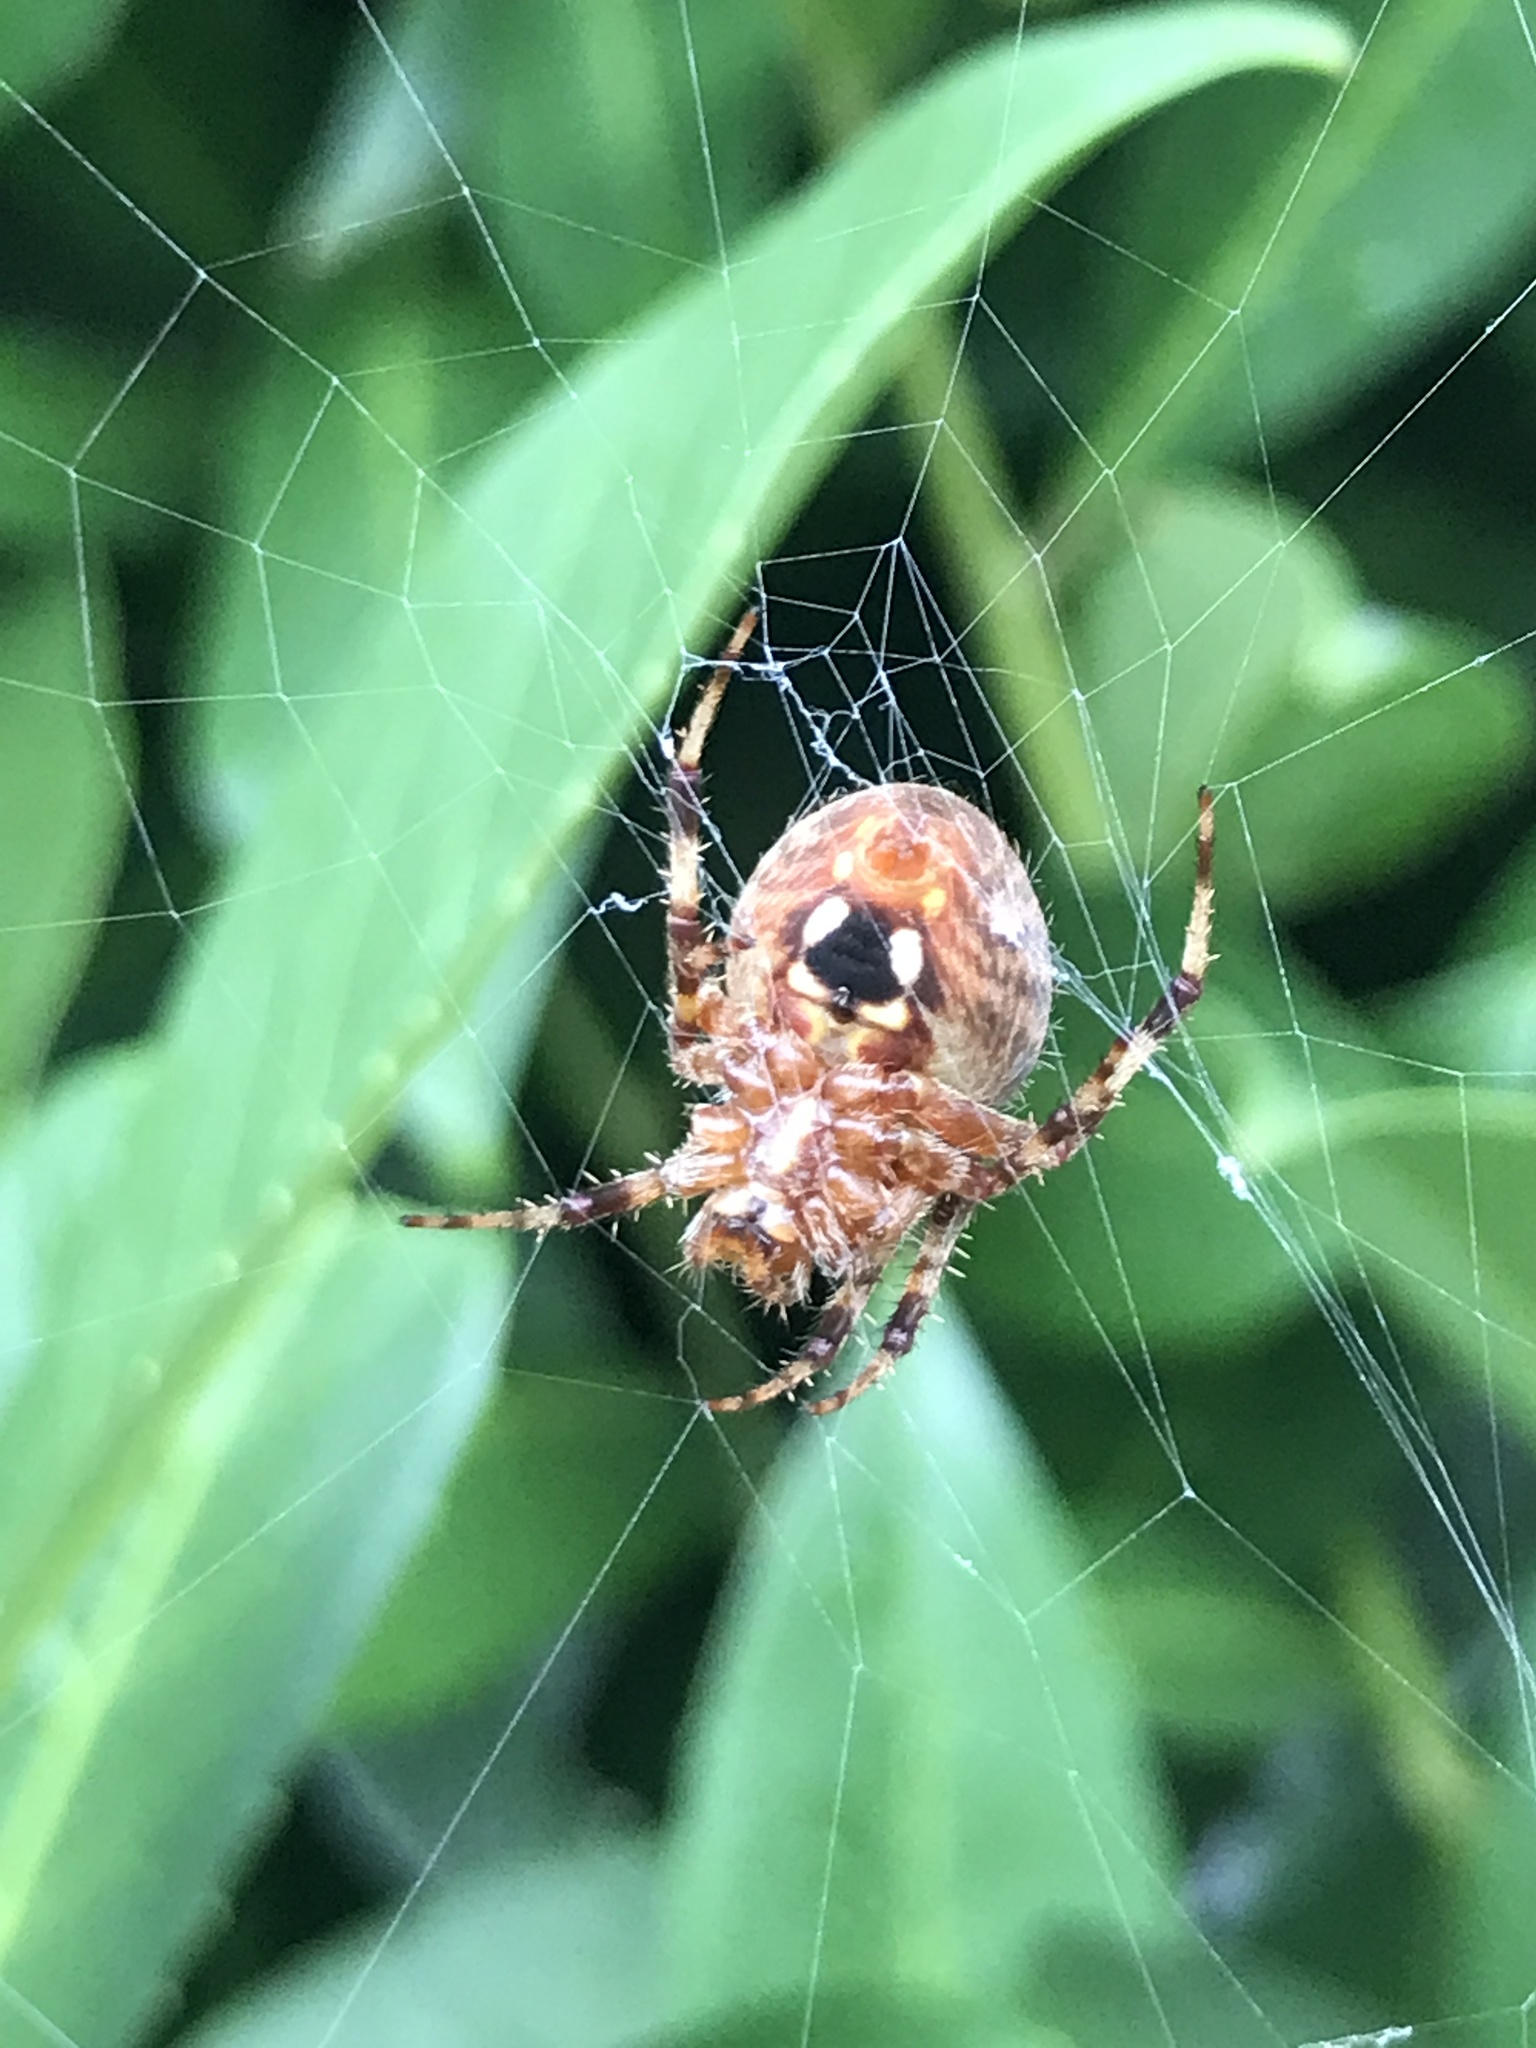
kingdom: Animalia
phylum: Arthropoda
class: Arachnida
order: Araneae
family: Araneidae
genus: Neoscona
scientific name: Neoscona crucifera
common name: Spotted orbweaver
